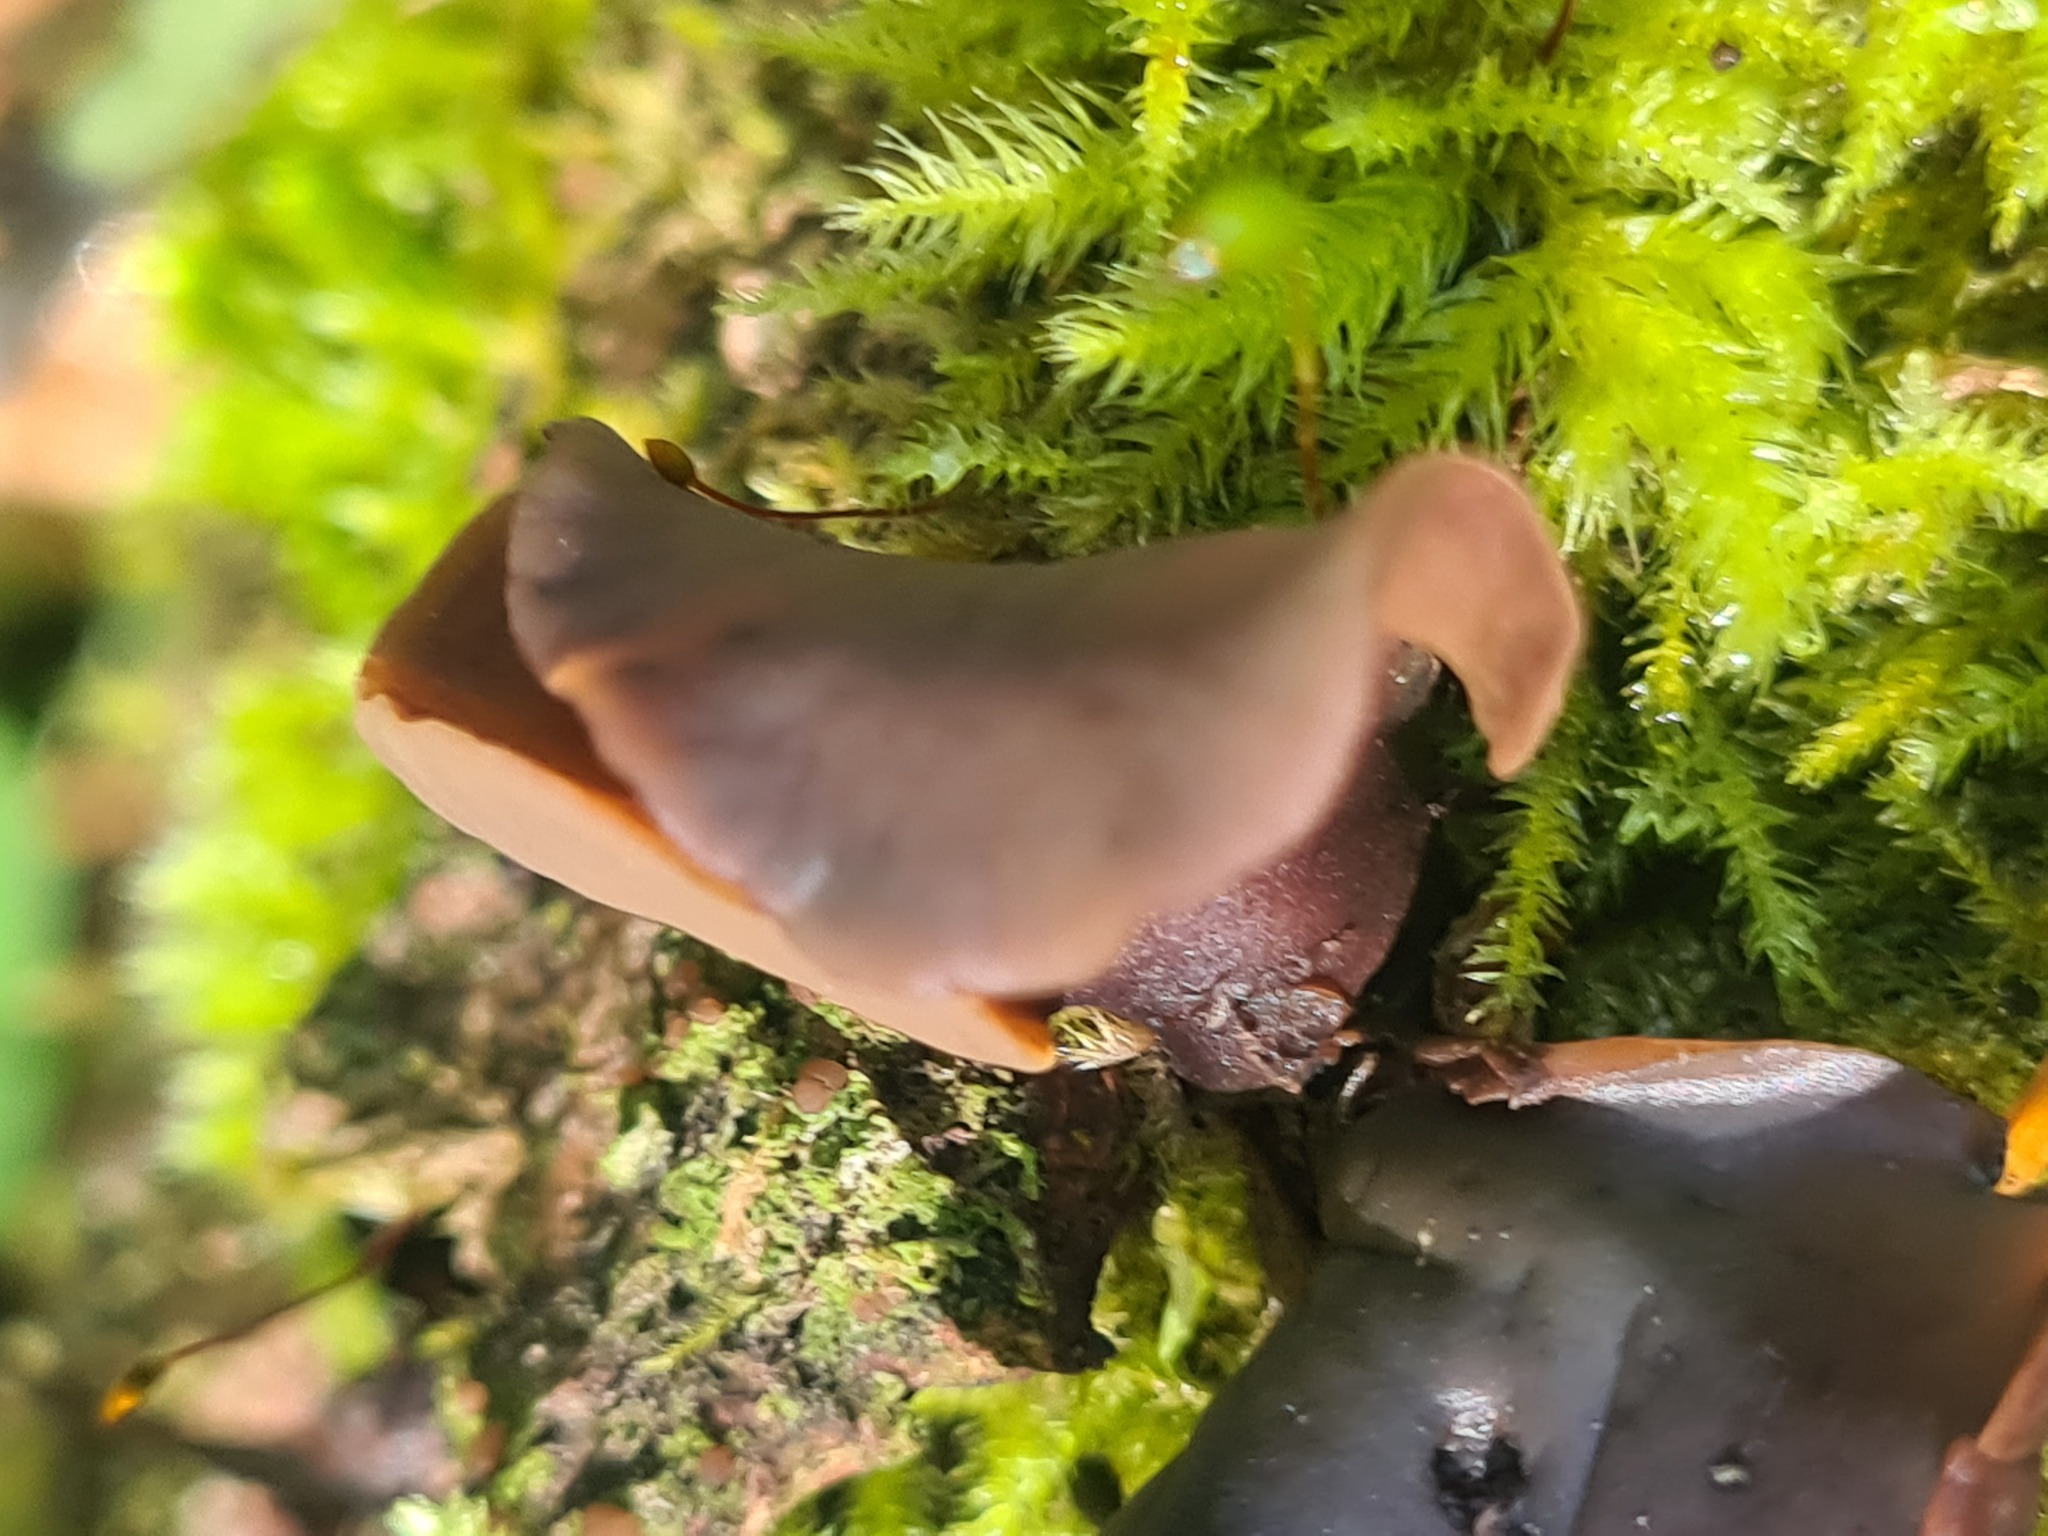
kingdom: Fungi
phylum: Ascomycota
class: Leotiomycetes
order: Helotiales
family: Cenangiaceae
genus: Chlorencoelia
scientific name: Chlorencoelia versiformis
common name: Flea's ear
